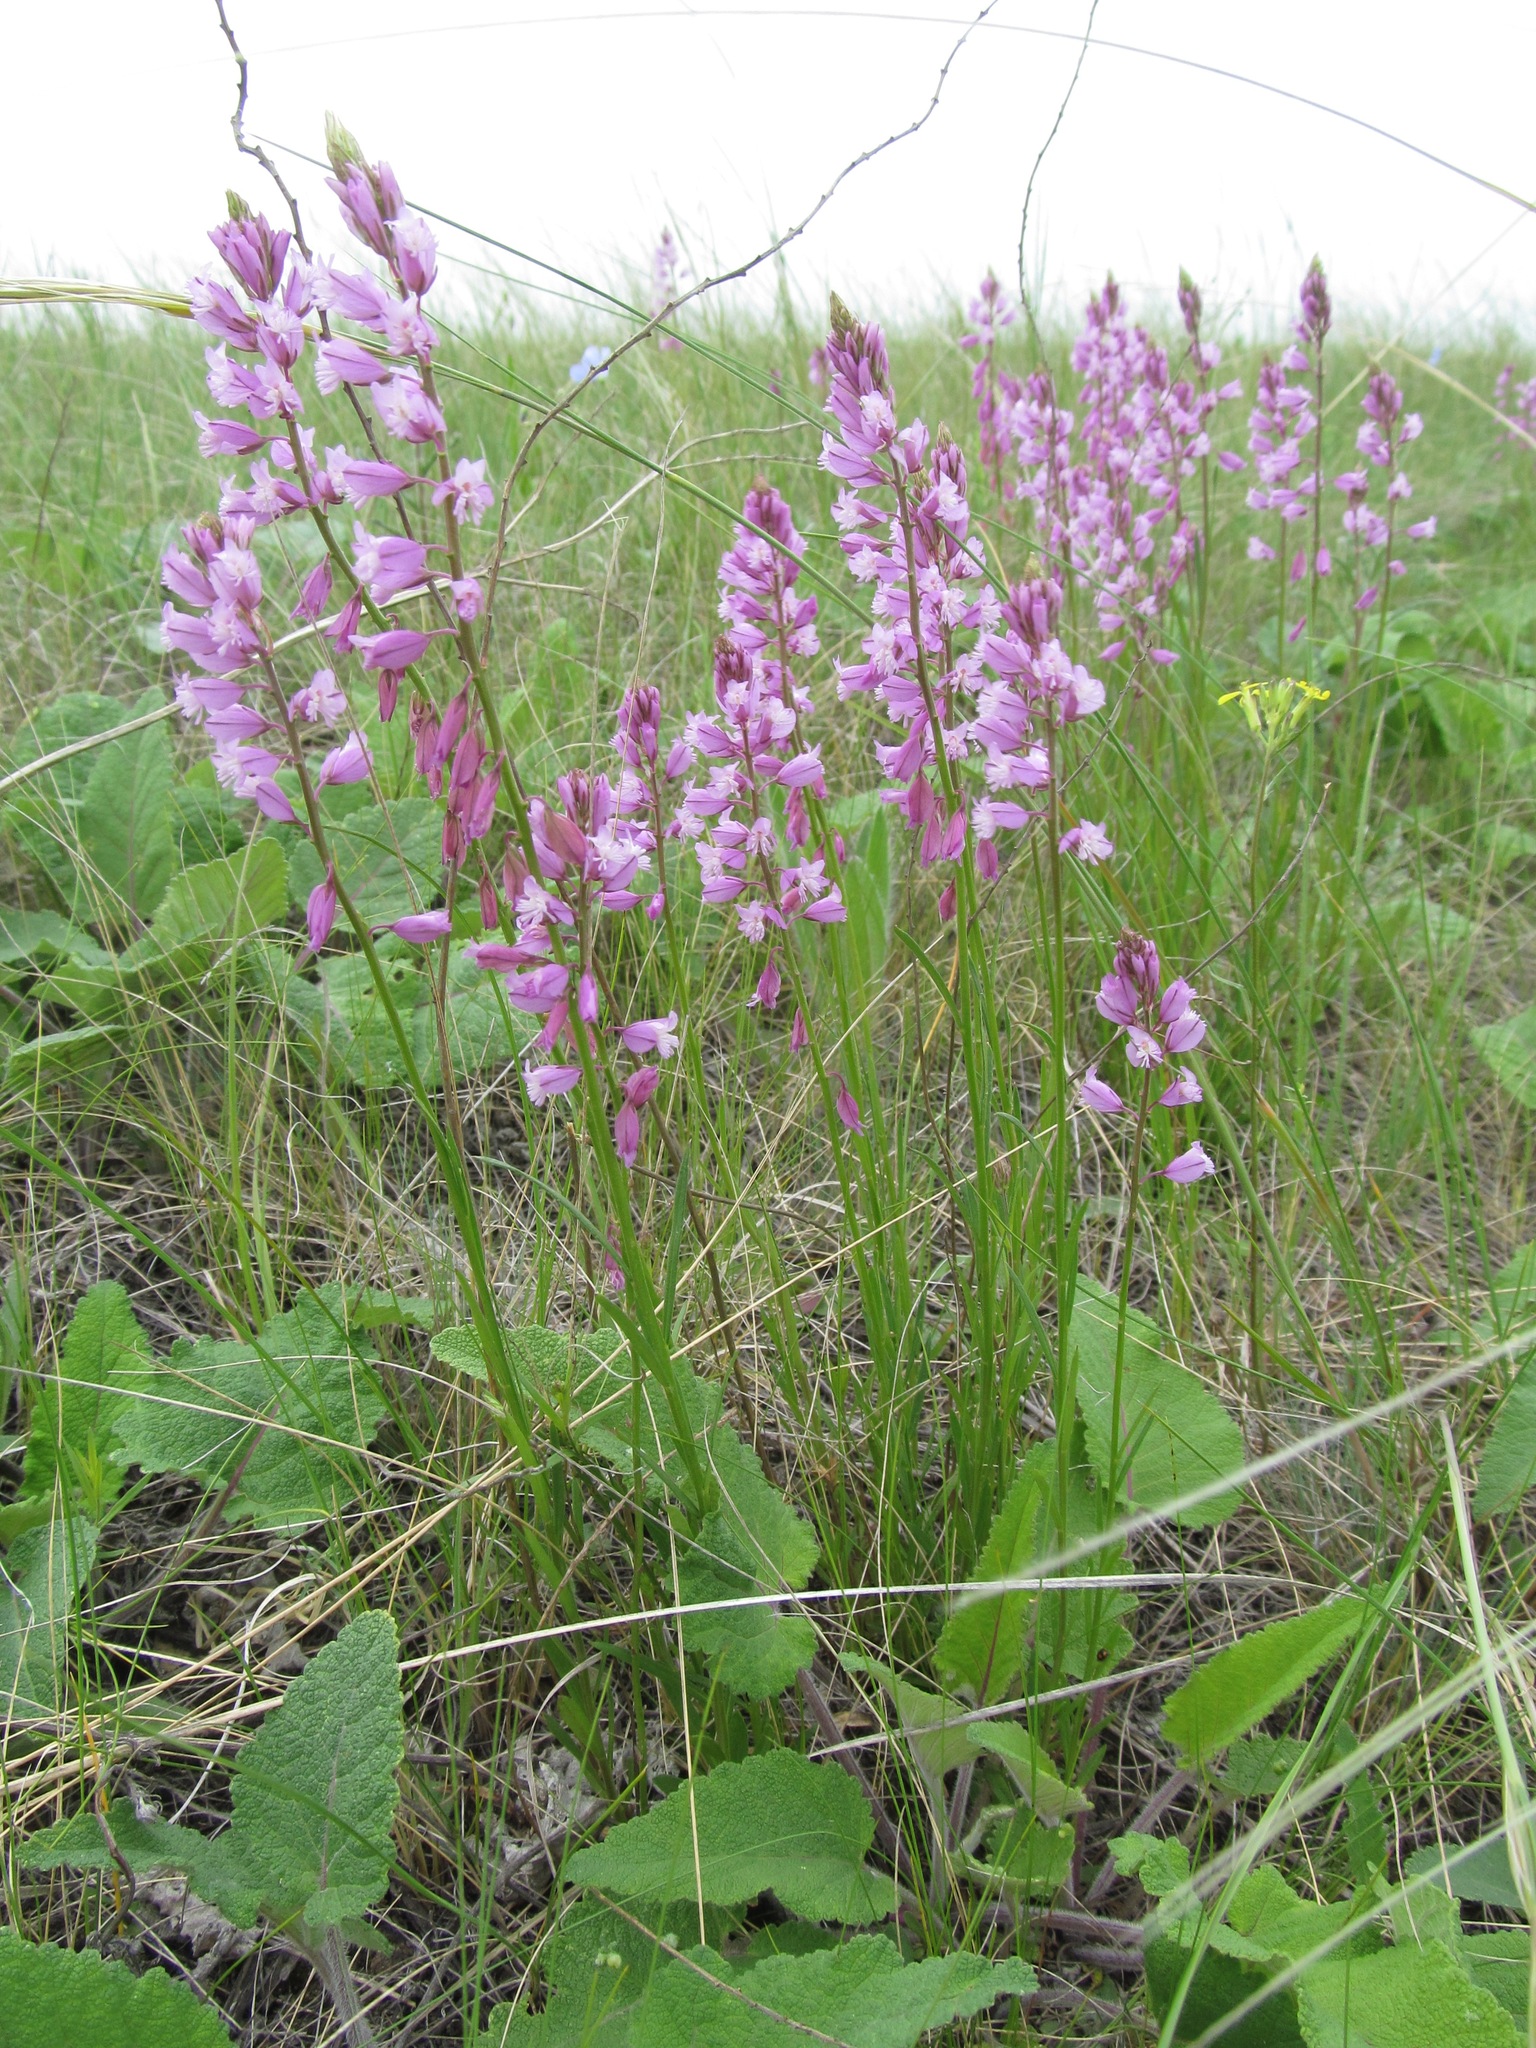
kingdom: Plantae
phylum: Tracheophyta
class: Magnoliopsida
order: Fabales
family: Polygalaceae
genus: Polygala
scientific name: Polygala nicaeensis
